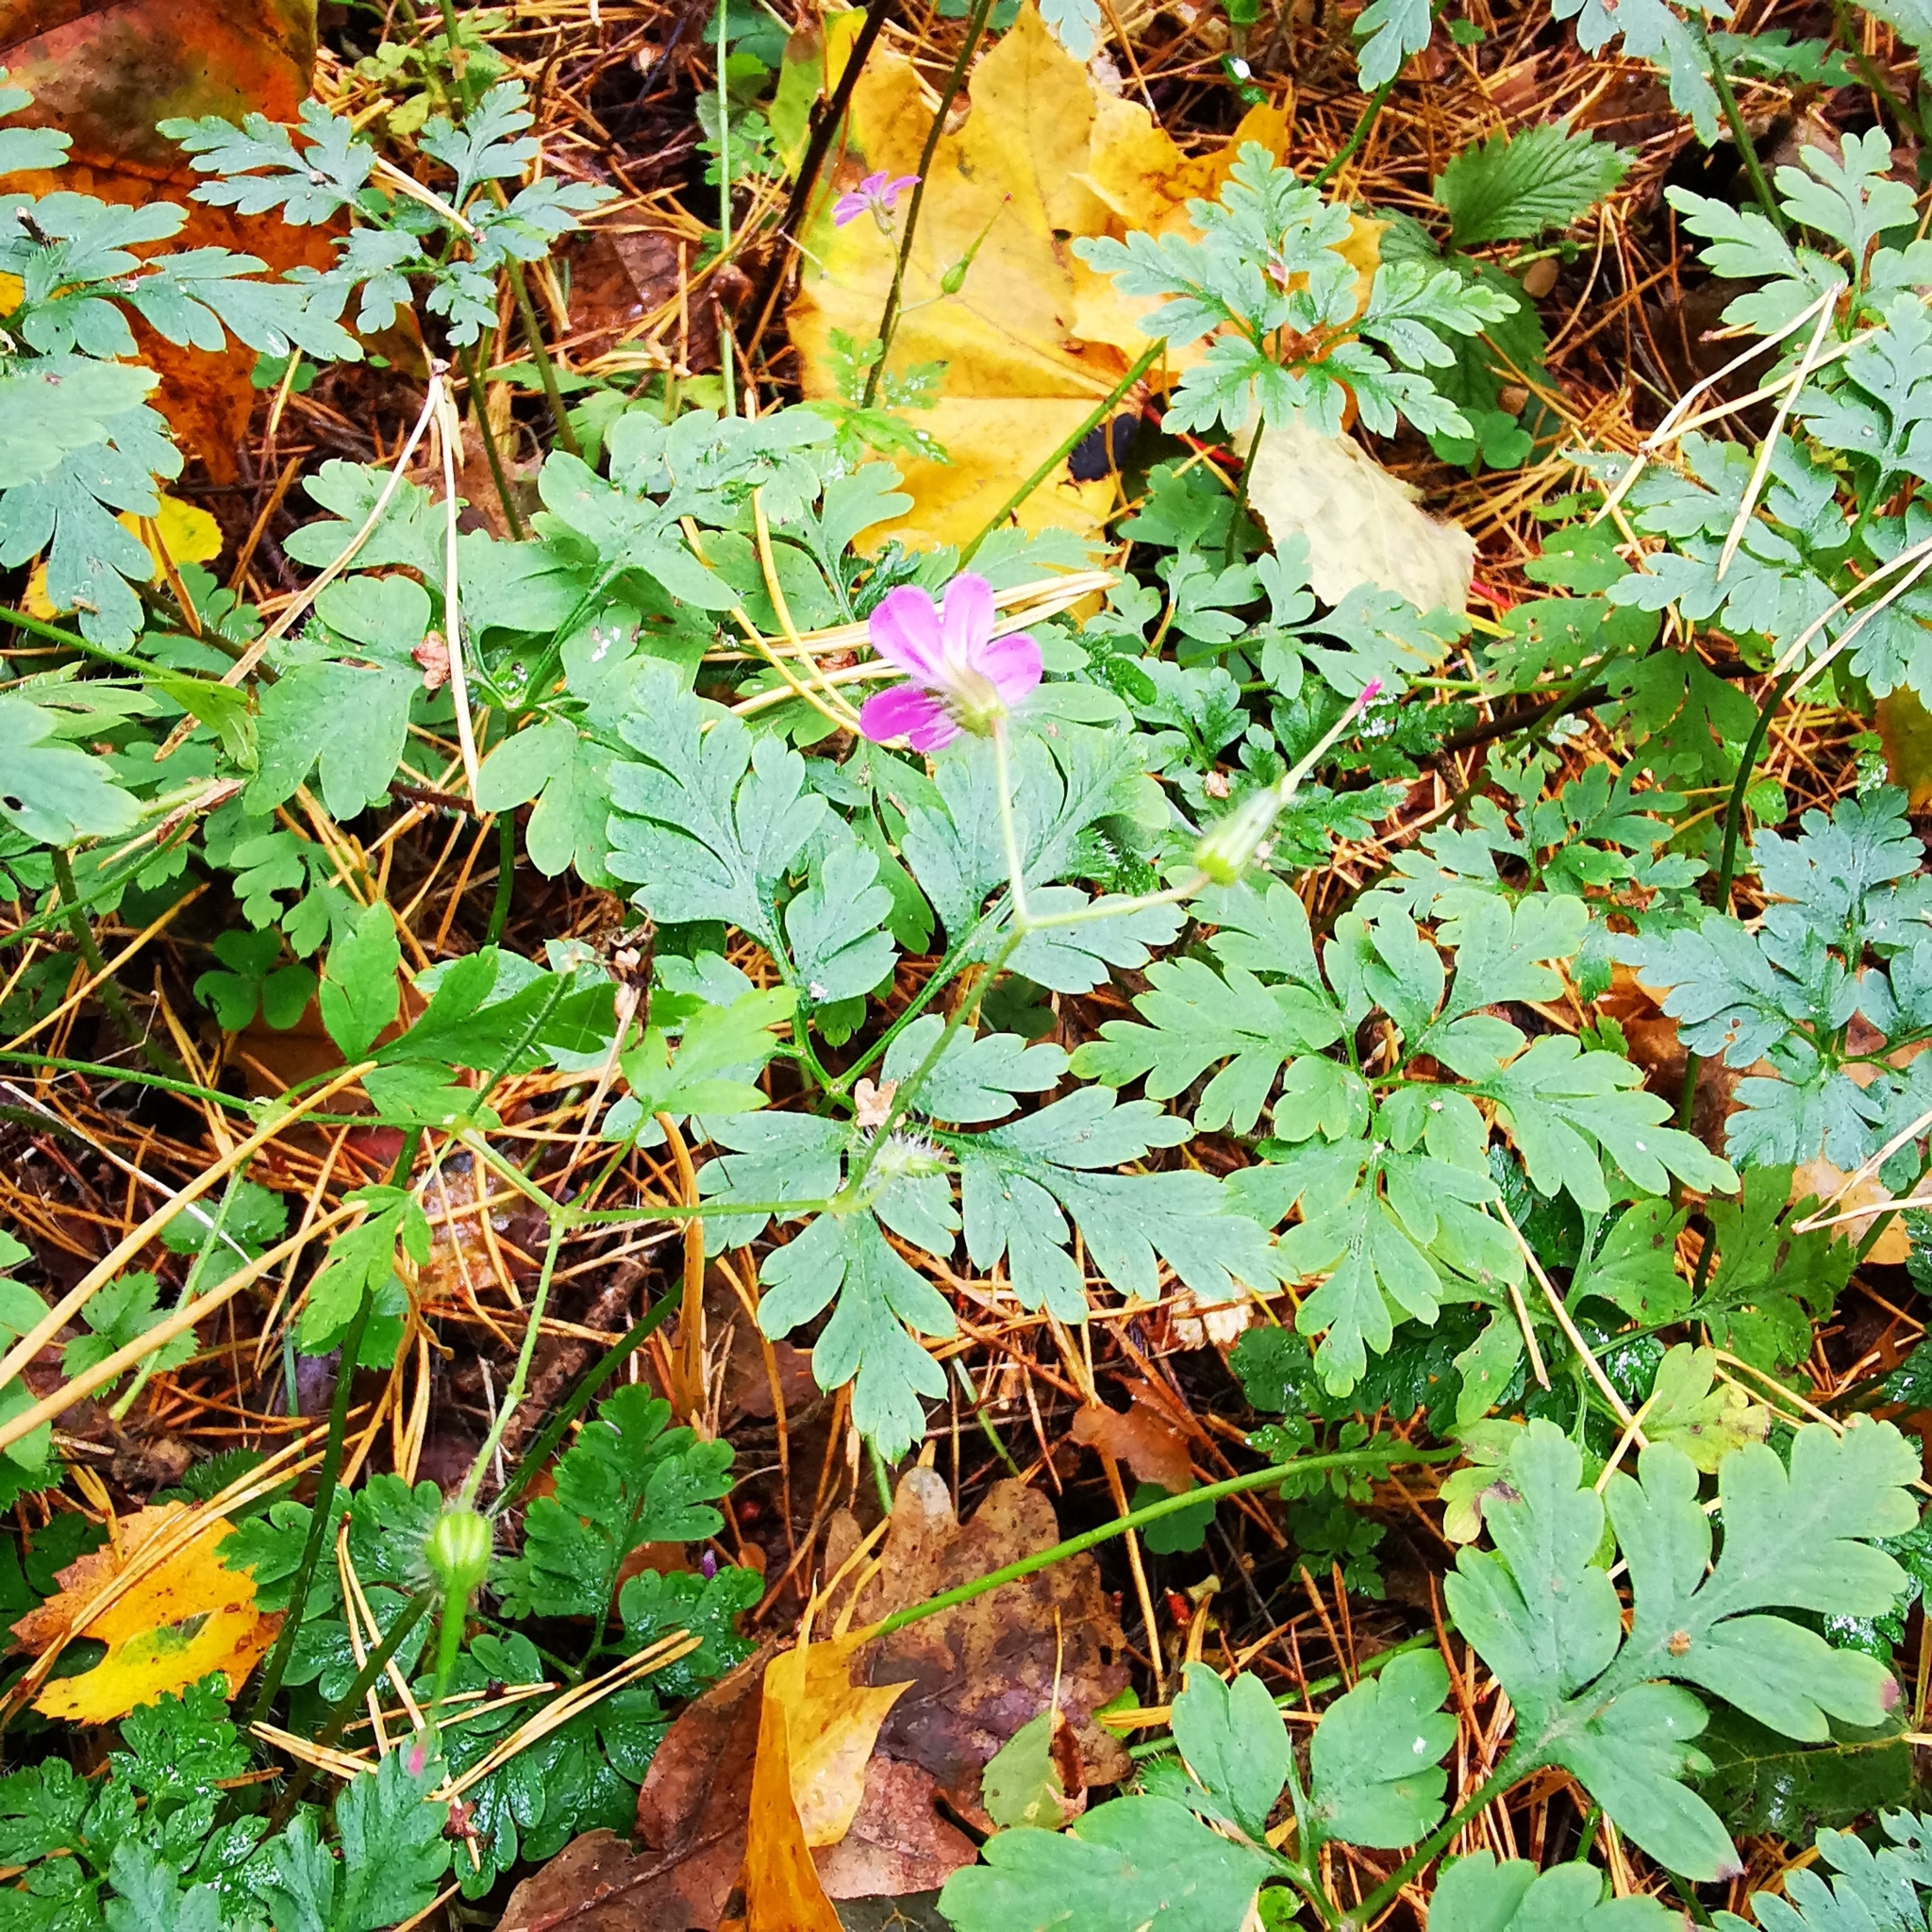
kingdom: Plantae
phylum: Tracheophyta
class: Magnoliopsida
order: Geraniales
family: Geraniaceae
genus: Geranium
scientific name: Geranium robertianum
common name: Herb-robert
